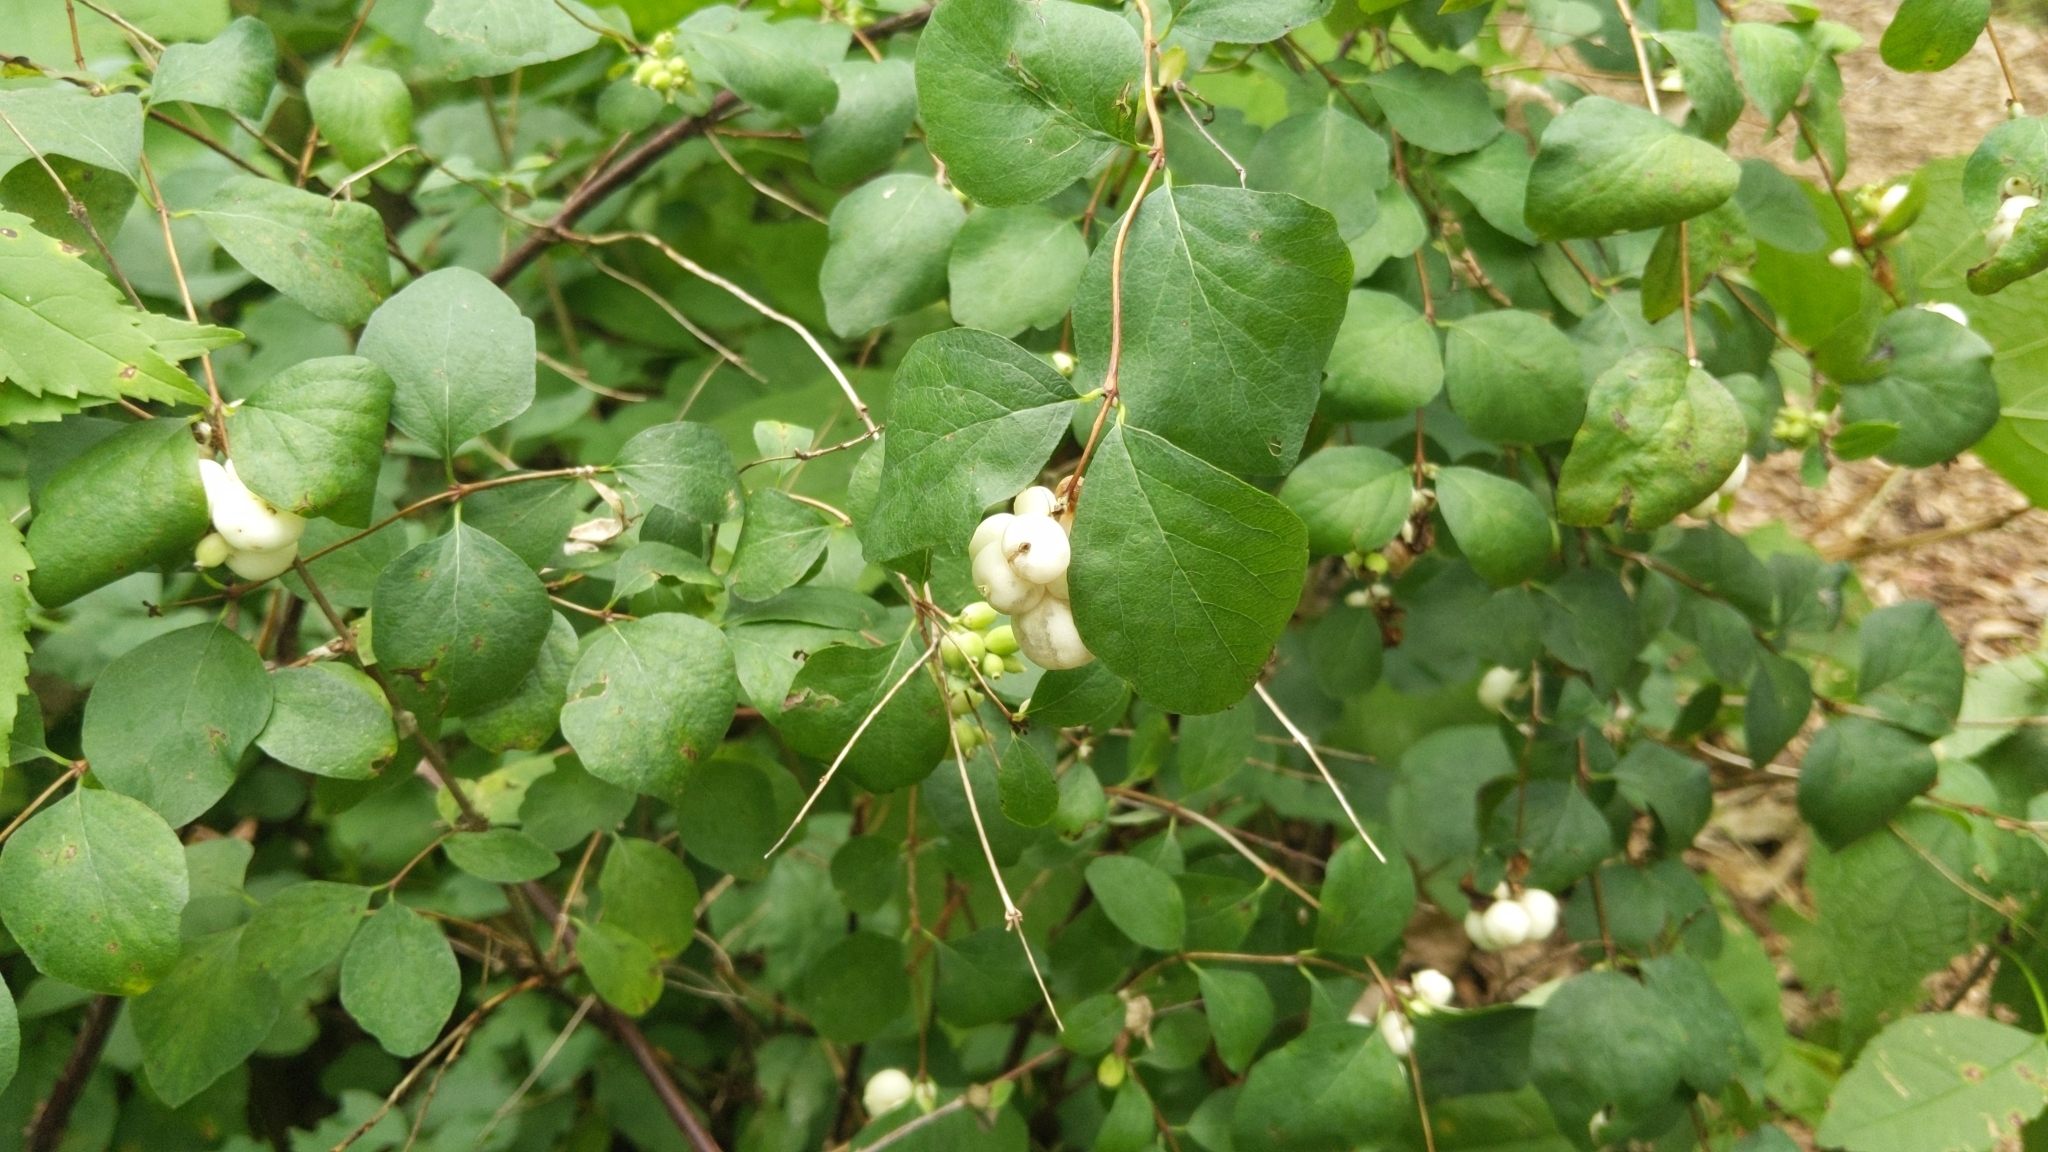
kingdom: Plantae
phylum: Tracheophyta
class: Magnoliopsida
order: Dipsacales
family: Caprifoliaceae
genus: Symphoricarpos
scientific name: Symphoricarpos albus
